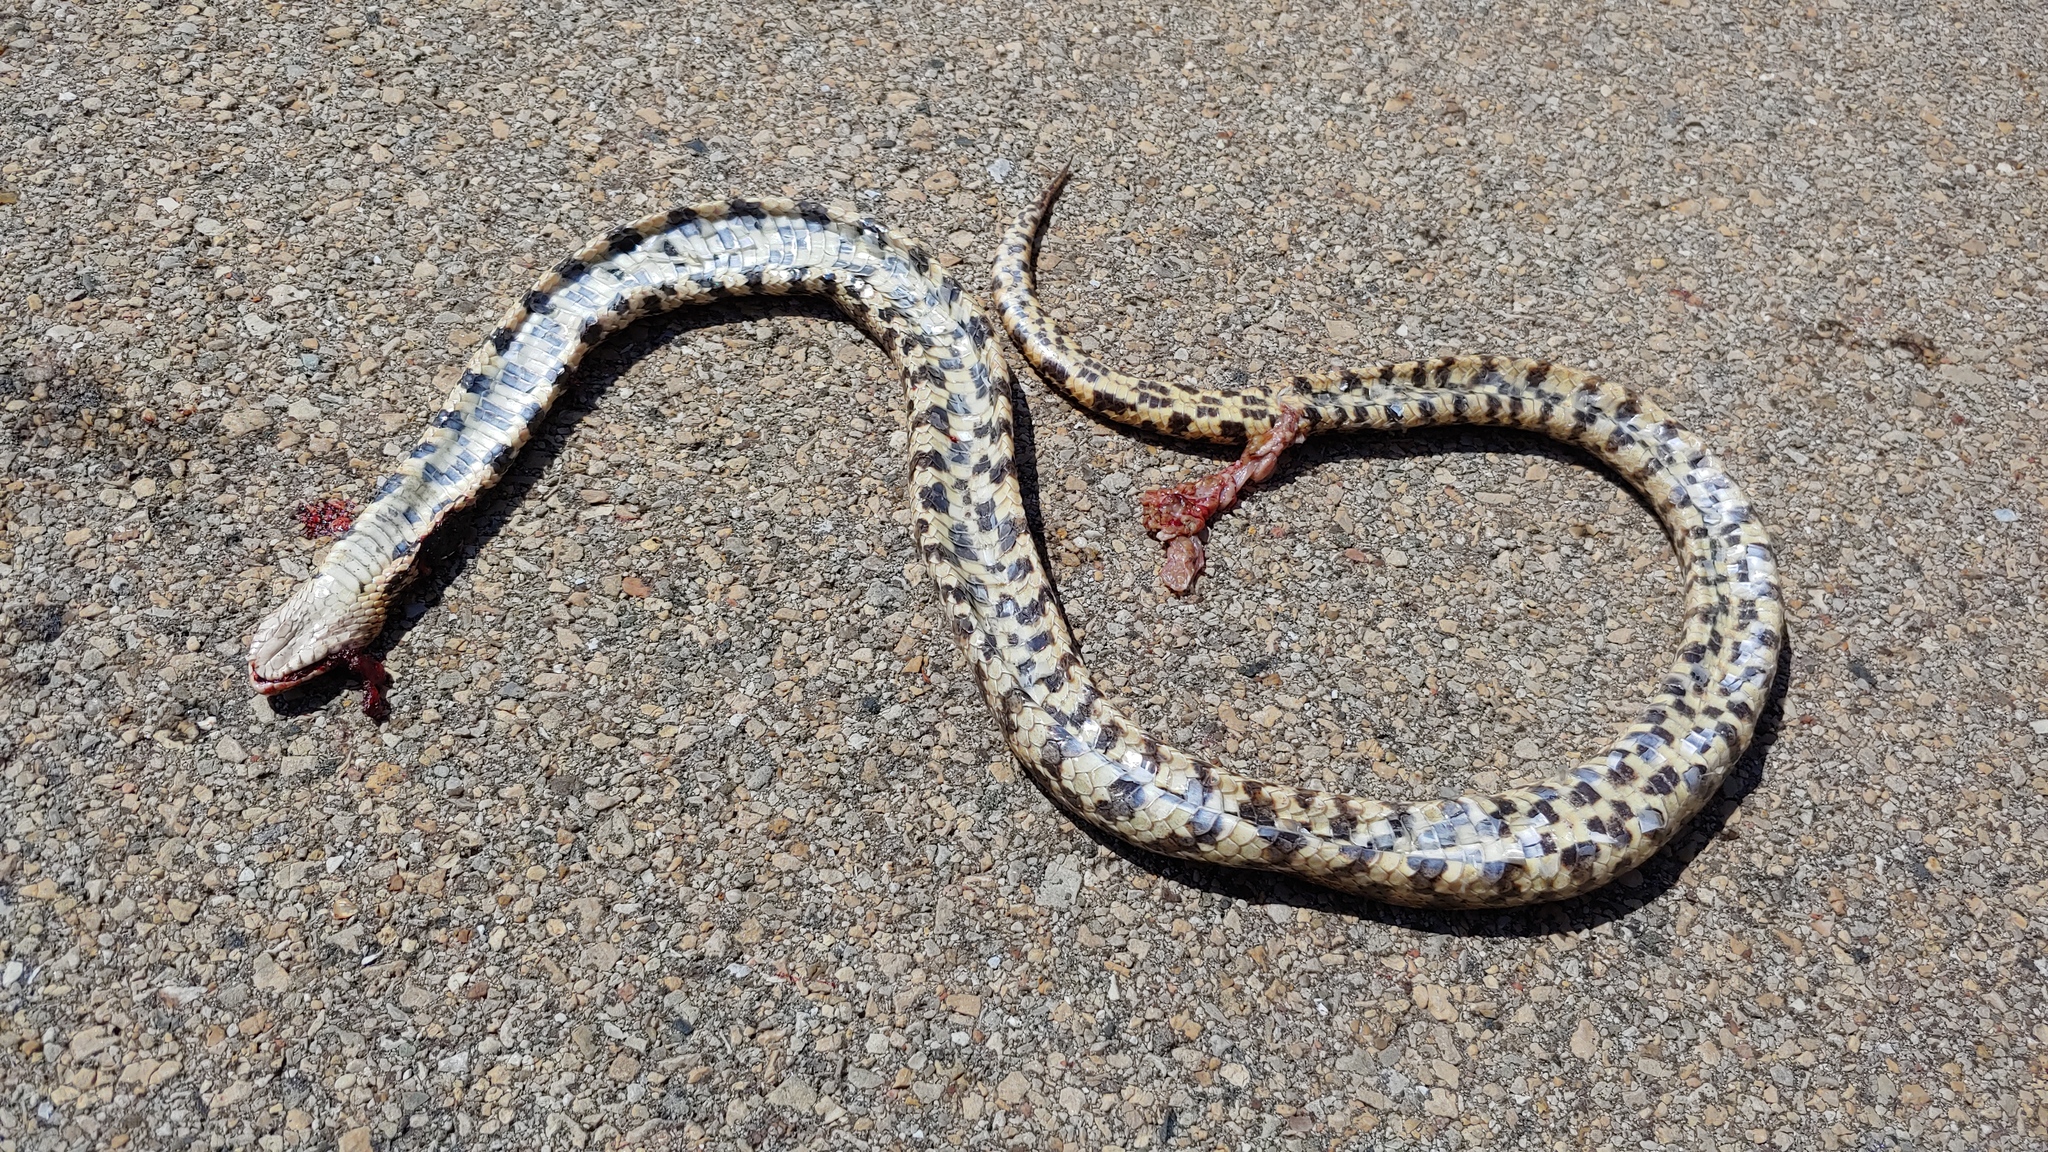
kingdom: Animalia
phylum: Chordata
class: Squamata
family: Colubridae
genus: Pantherophis
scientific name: Pantherophis vulpinus
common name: Eastern fox snake
